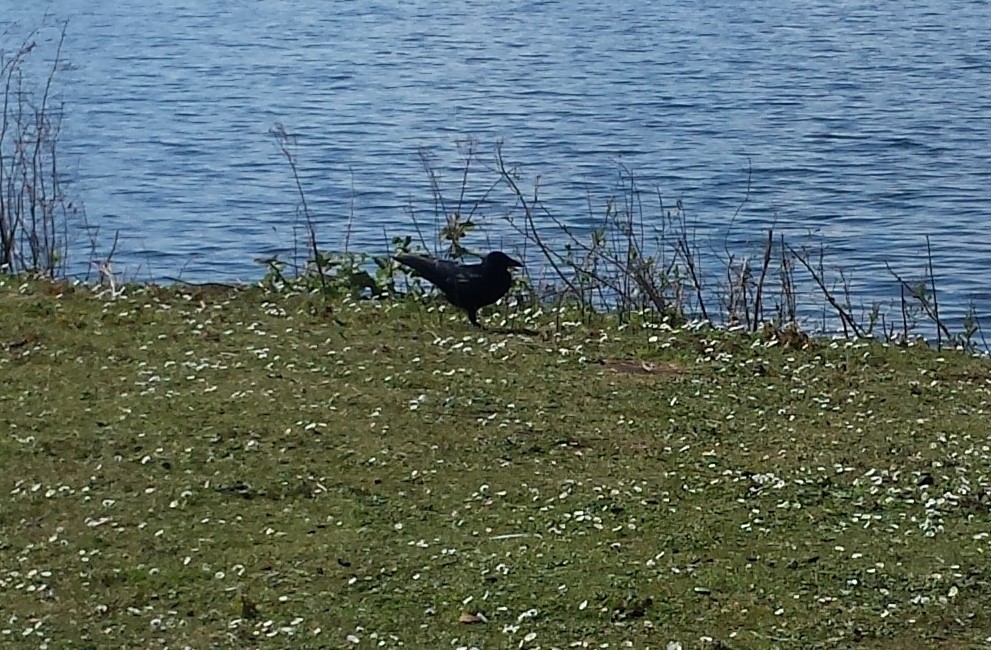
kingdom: Animalia
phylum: Chordata
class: Aves
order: Passeriformes
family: Corvidae
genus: Corvus
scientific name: Corvus corone
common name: Carrion crow
